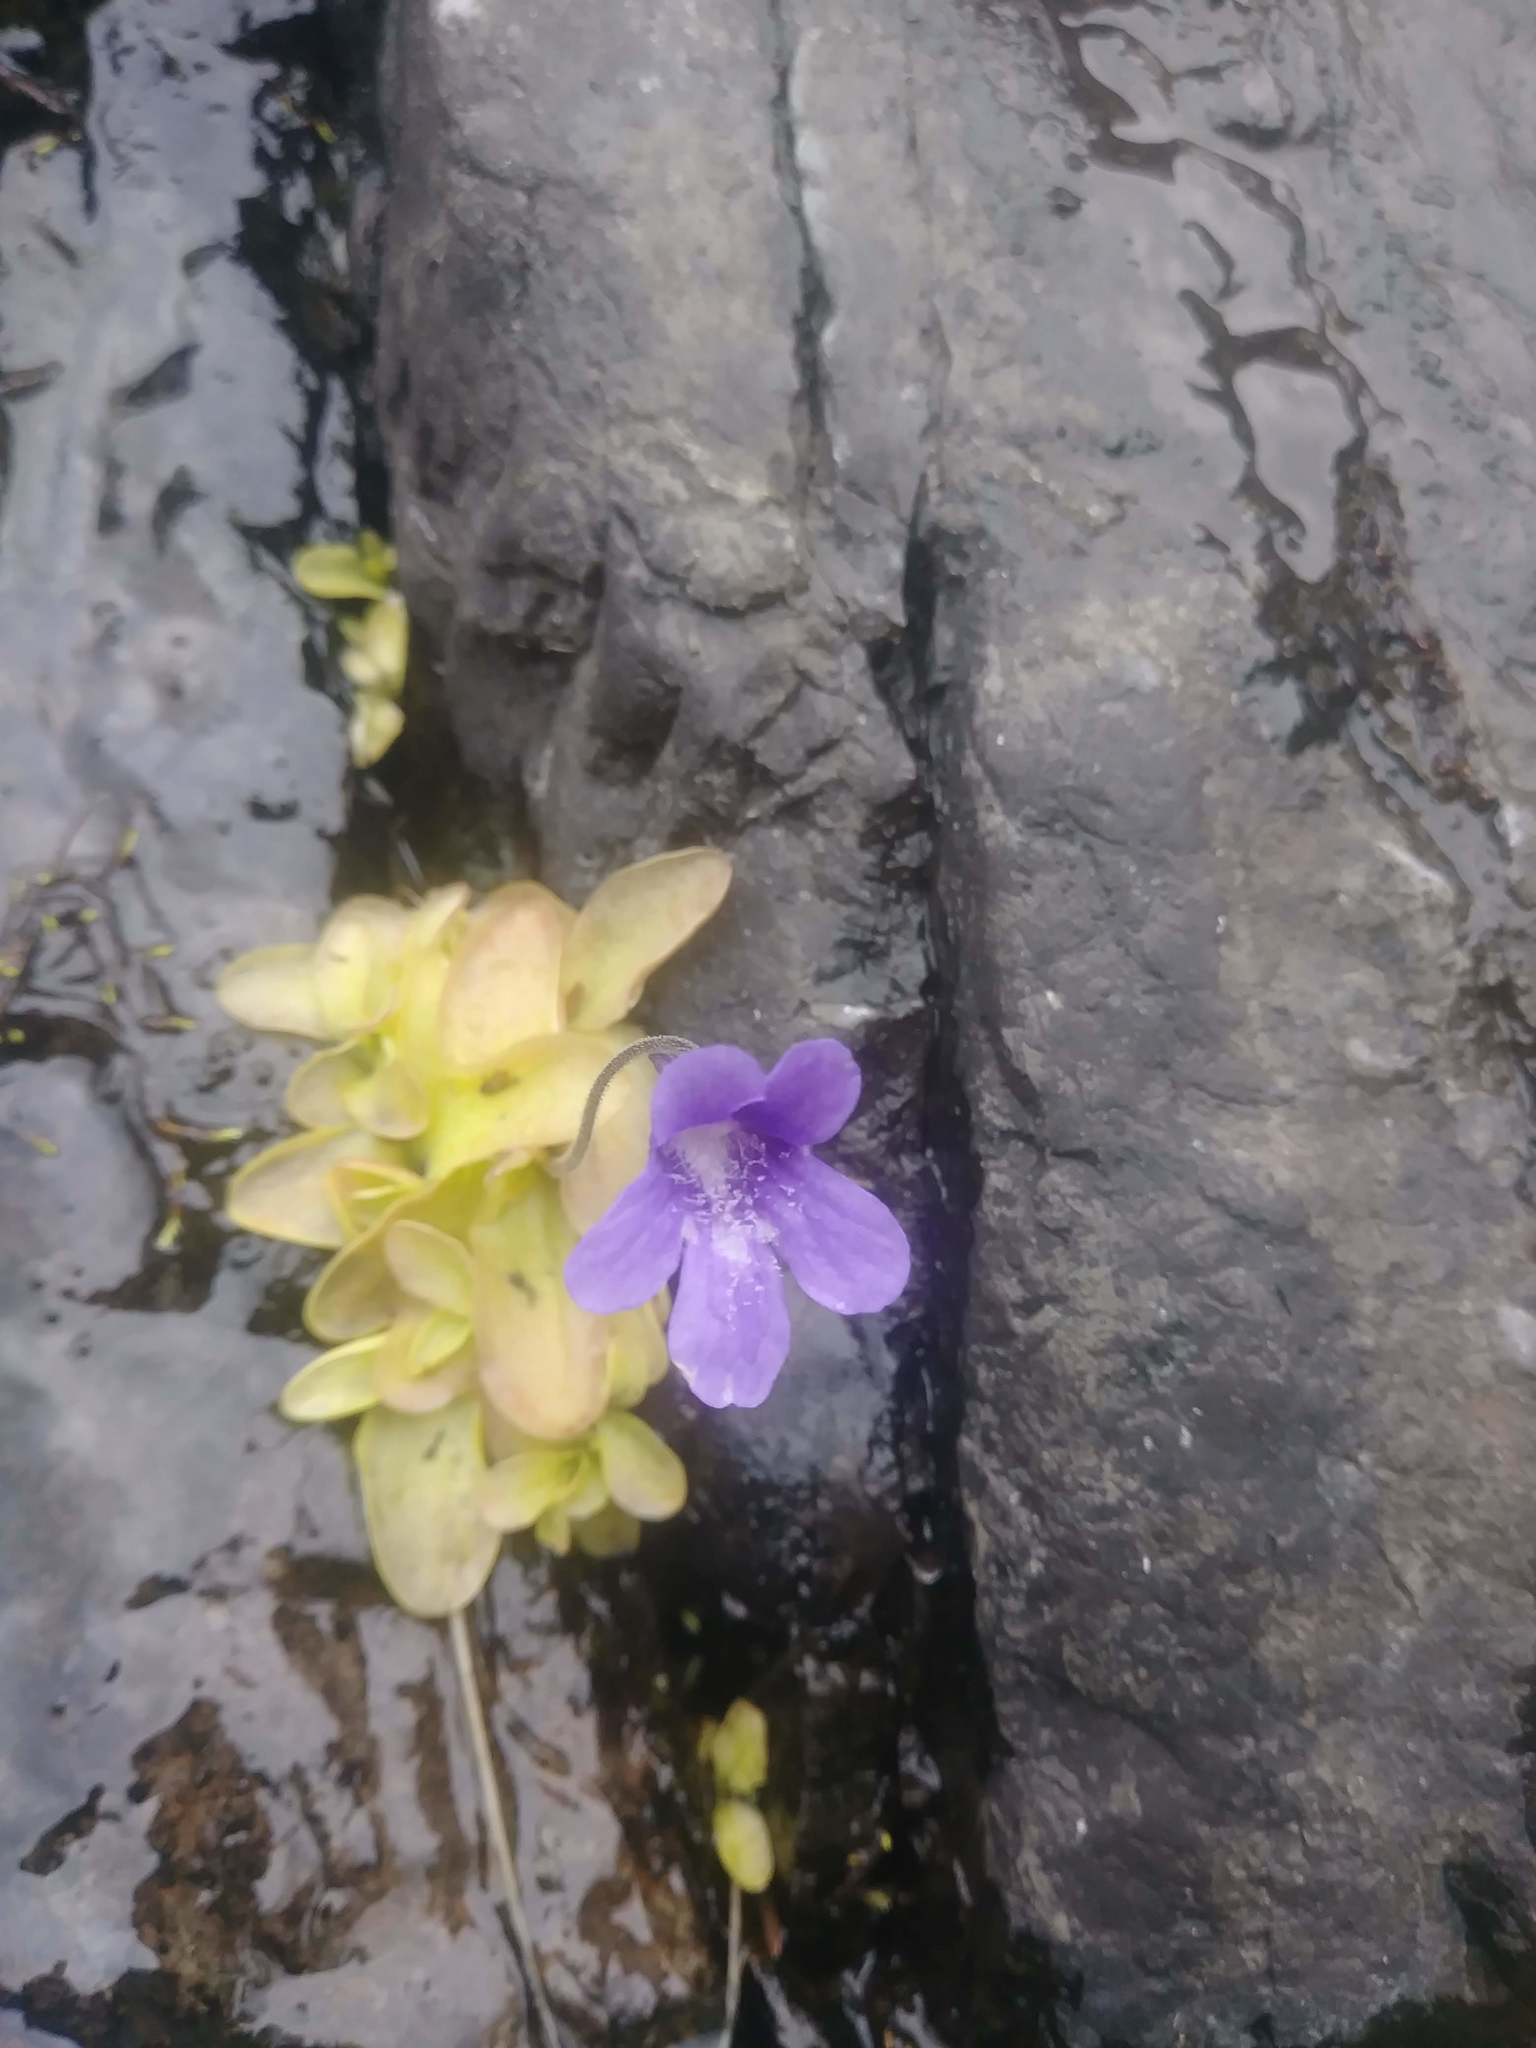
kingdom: Plantae
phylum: Tracheophyta
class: Magnoliopsida
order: Lamiales
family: Lentibulariaceae
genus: Pinguicula
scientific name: Pinguicula vulgaris
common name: Common butterwort
